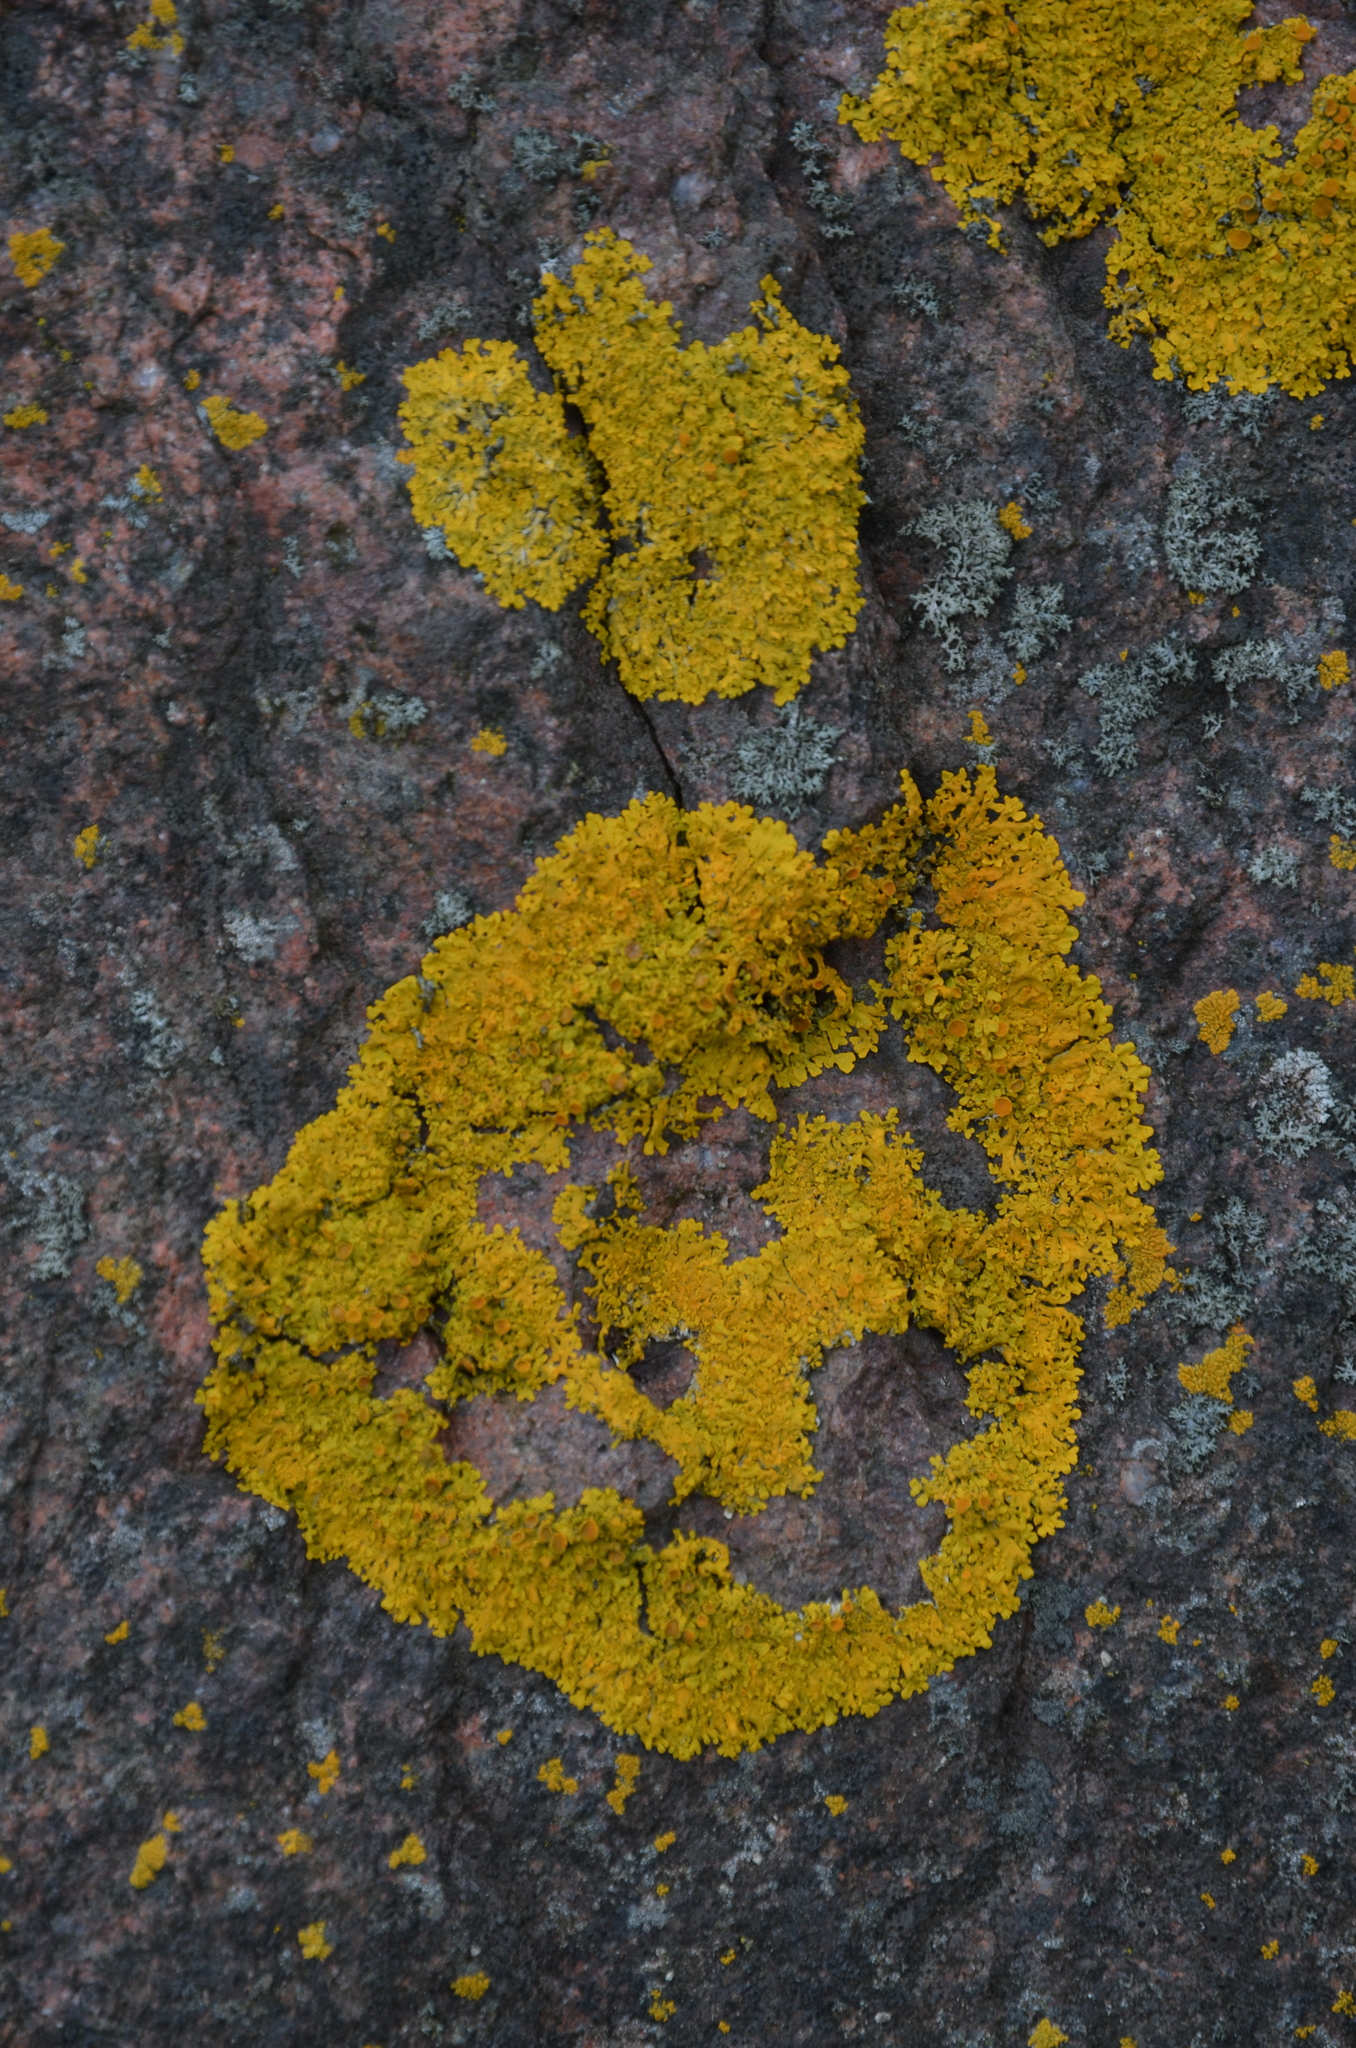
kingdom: Fungi
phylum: Ascomycota
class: Lecanoromycetes
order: Teloschistales
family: Teloschistaceae
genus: Xanthoria
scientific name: Xanthoria parietina
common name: Common orange lichen
